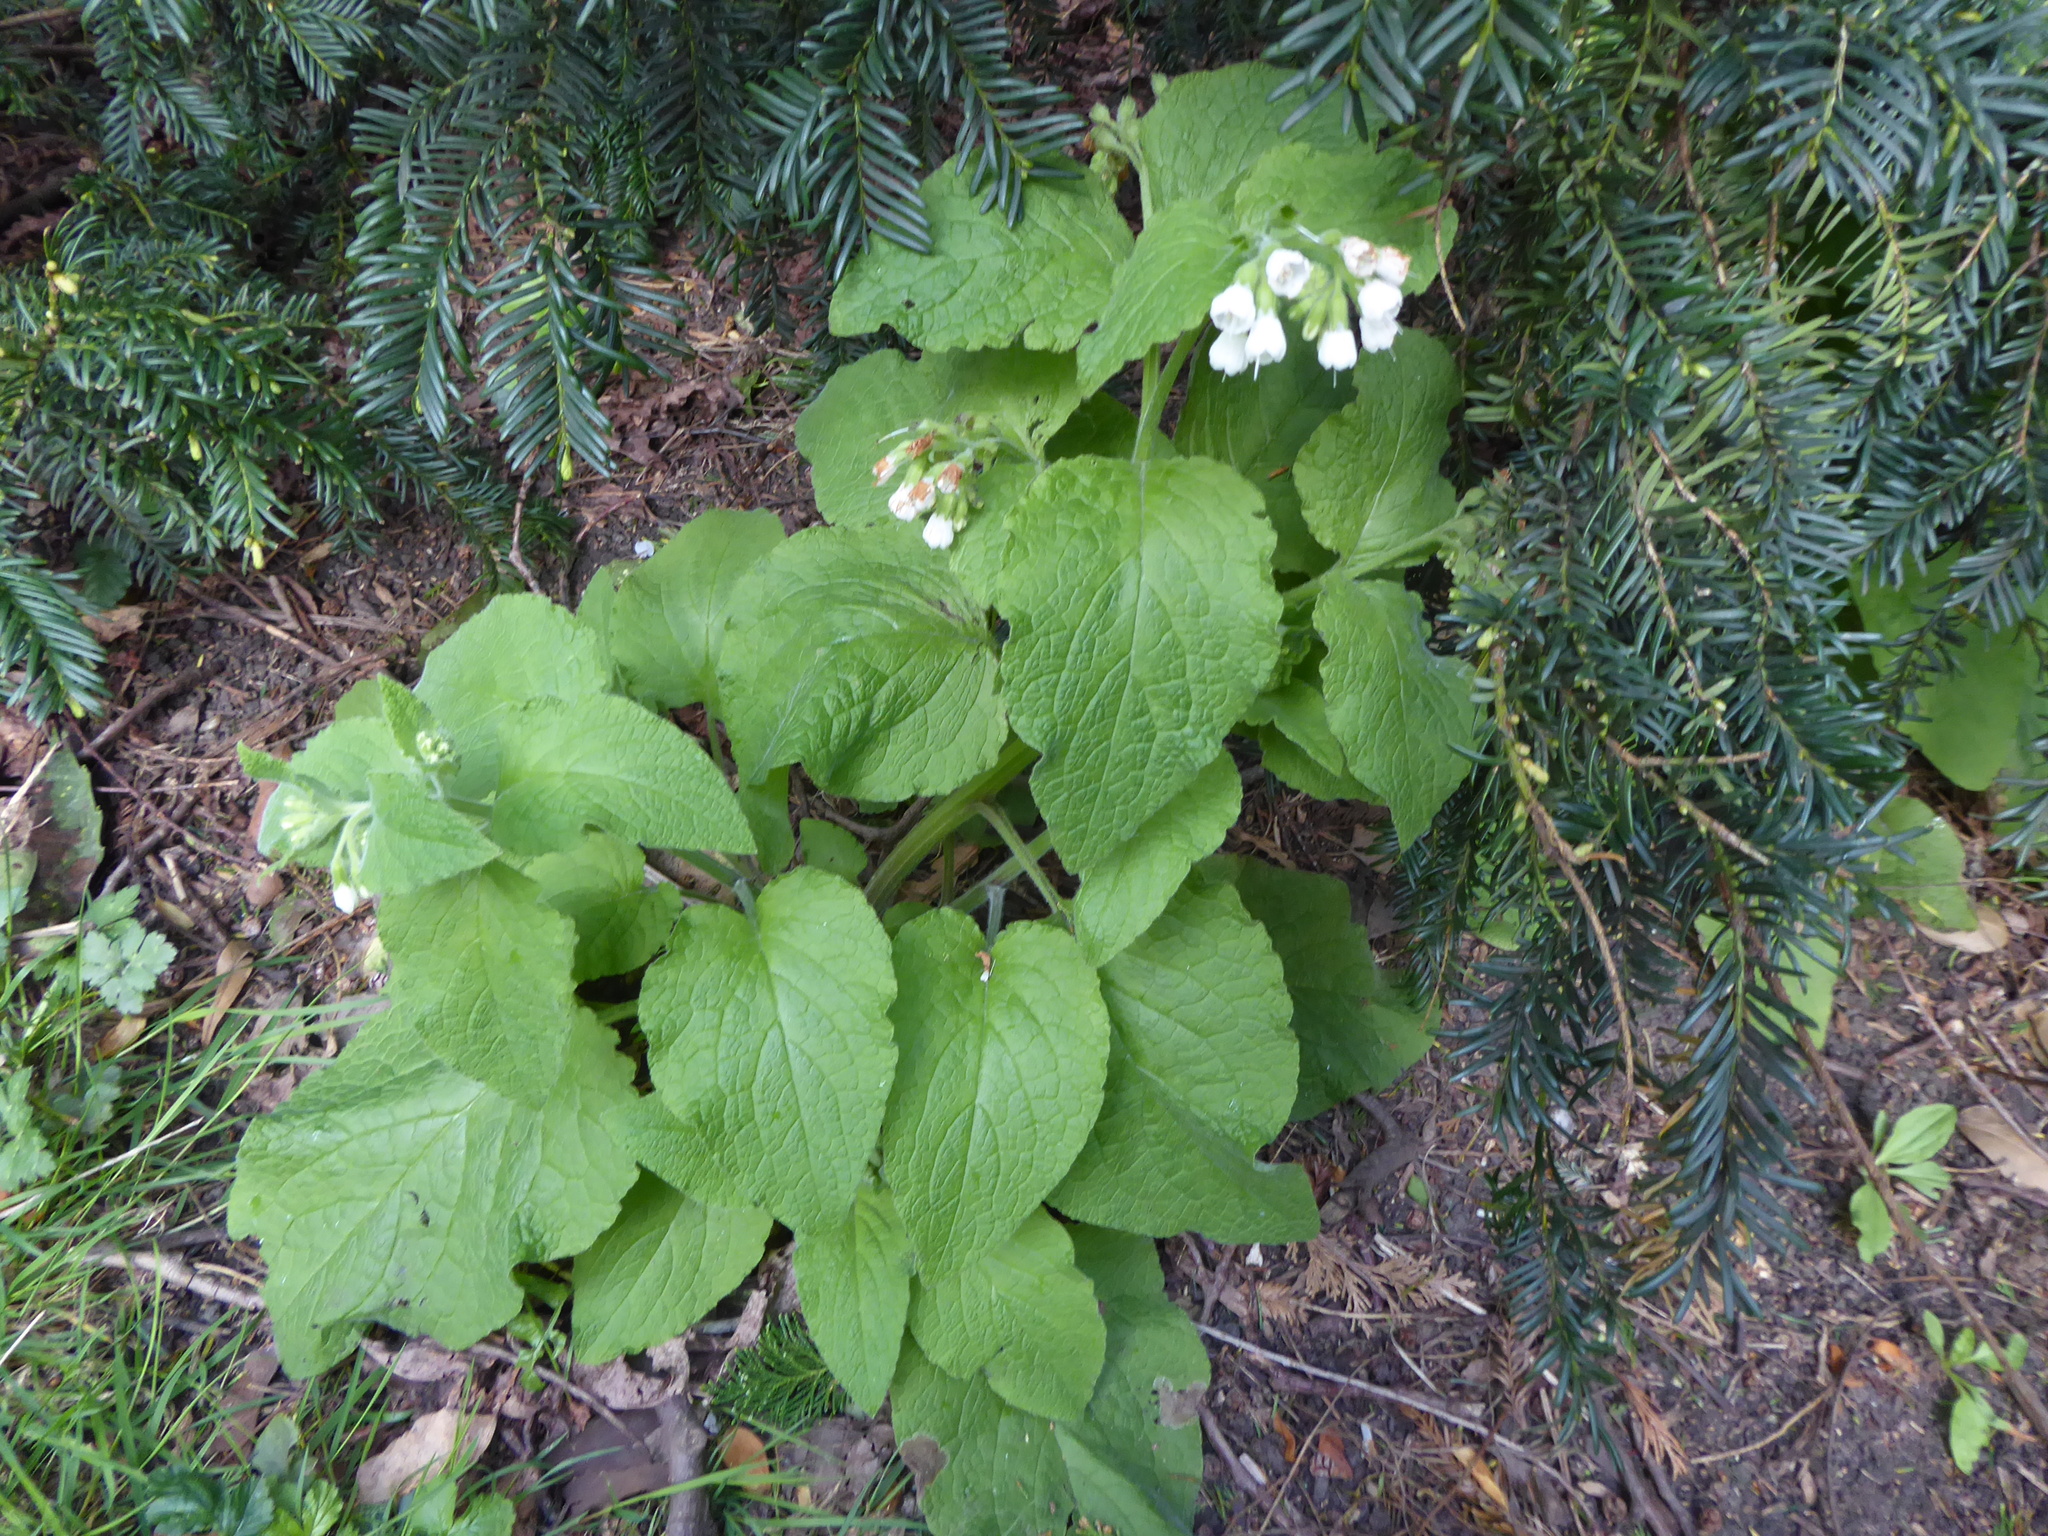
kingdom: Plantae
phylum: Tracheophyta
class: Magnoliopsida
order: Boraginales
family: Boraginaceae
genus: Symphytum
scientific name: Symphytum orientale
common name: White comfrey
